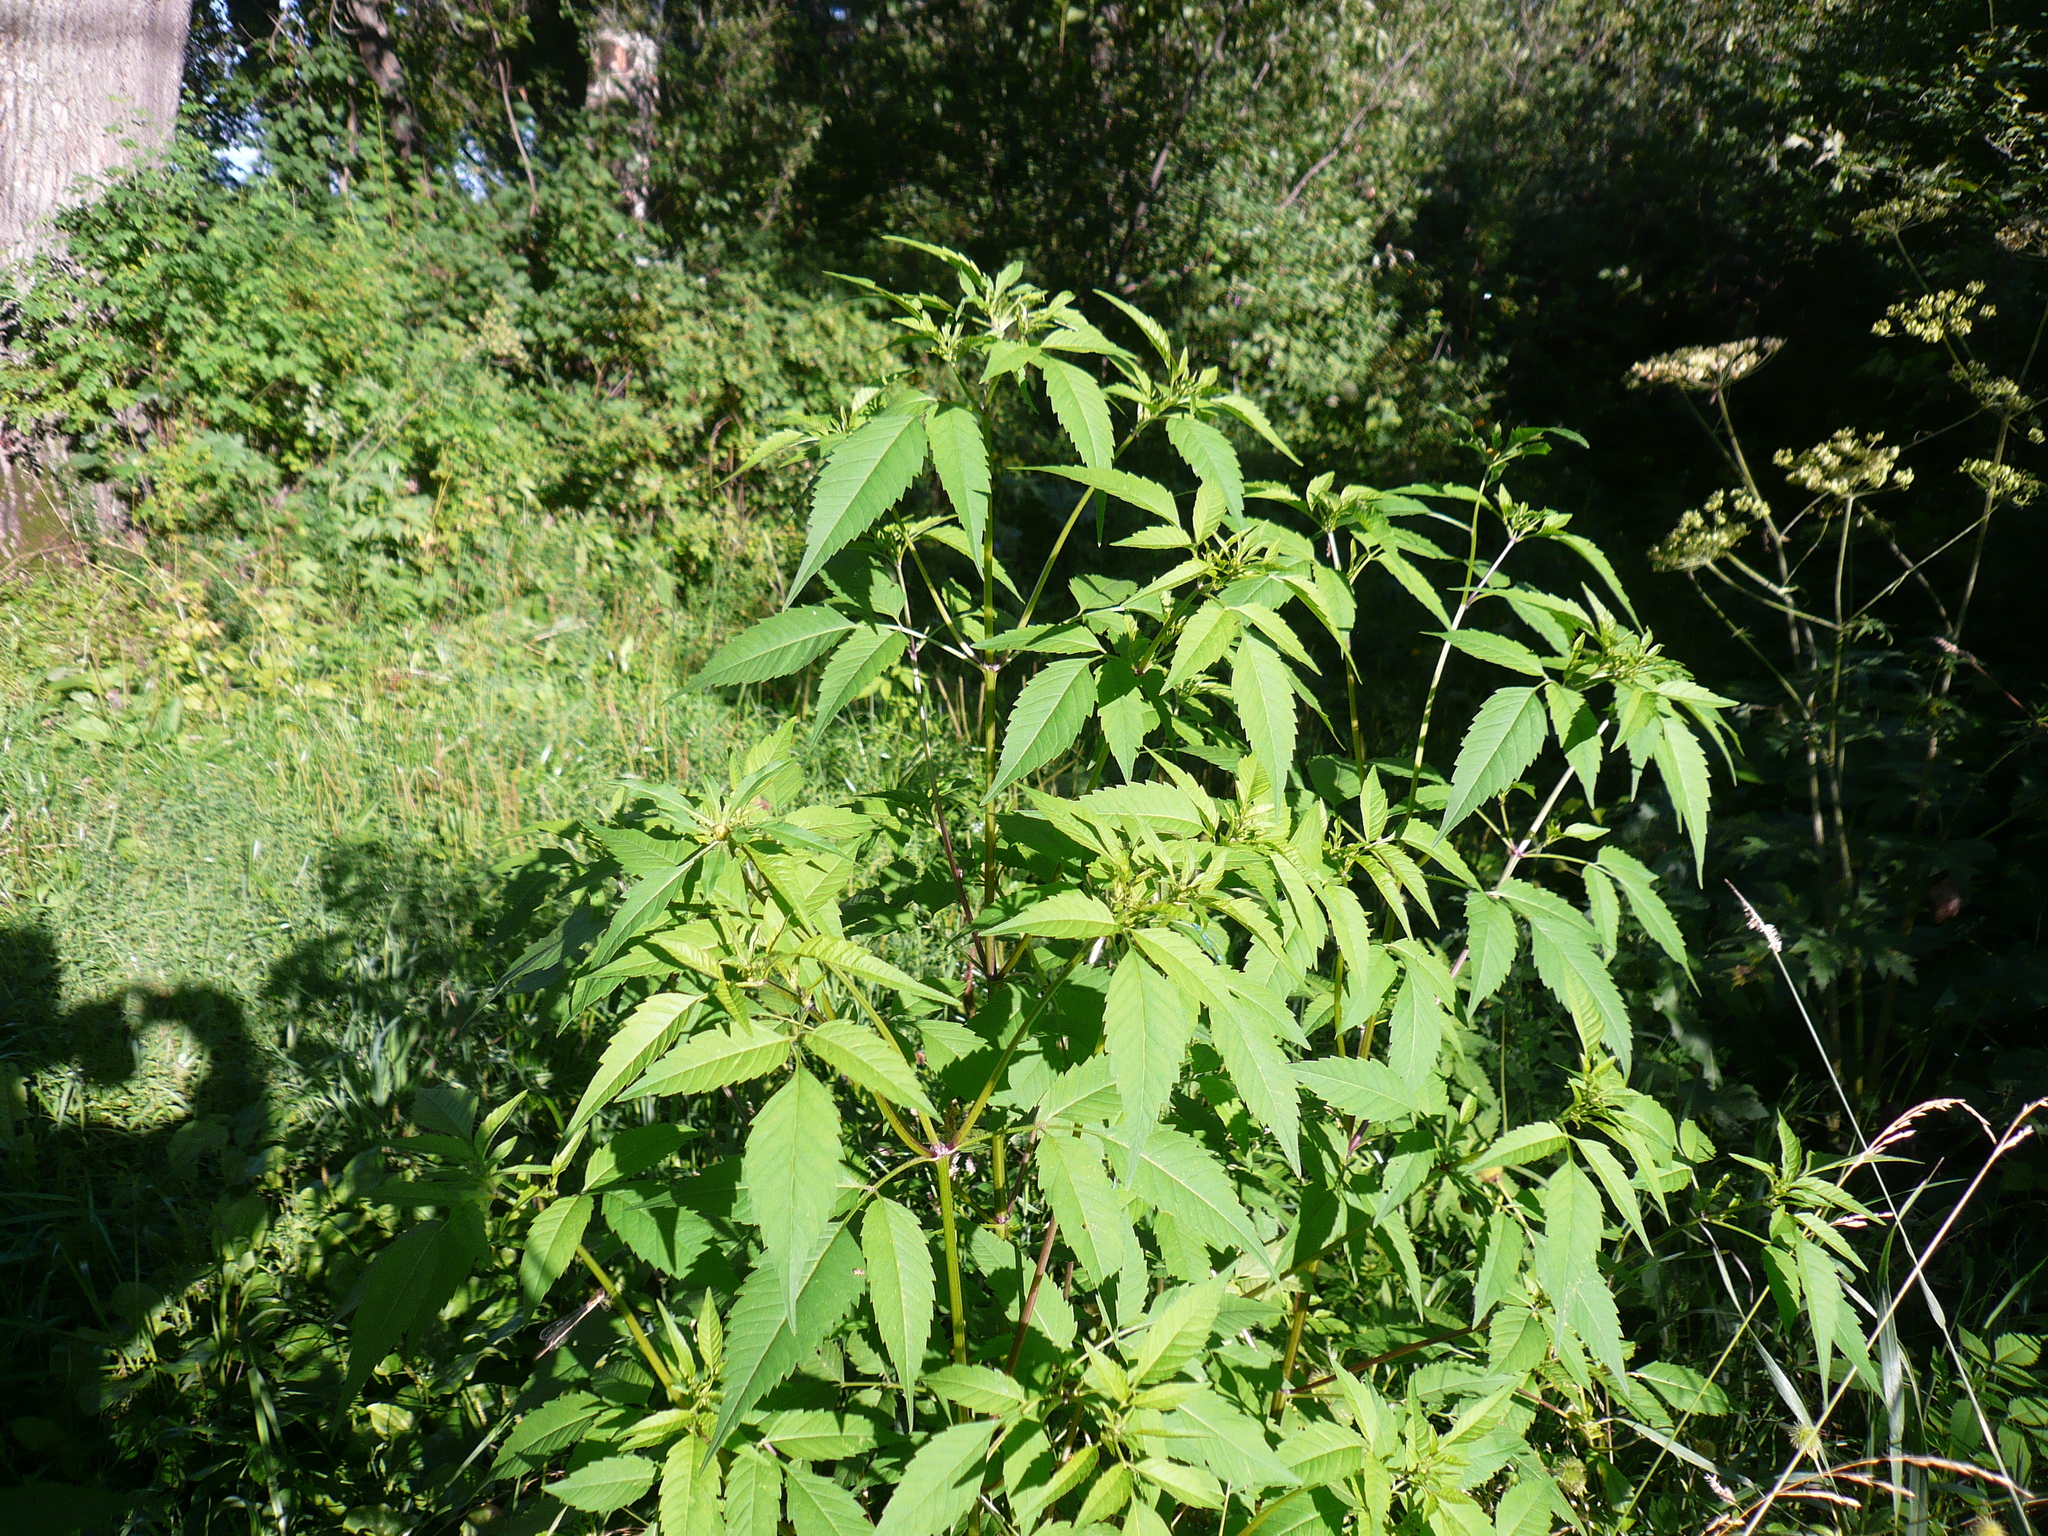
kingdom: Plantae
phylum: Tracheophyta
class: Magnoliopsida
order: Asterales
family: Asteraceae
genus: Bidens
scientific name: Bidens frondosa
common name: Beggarticks
